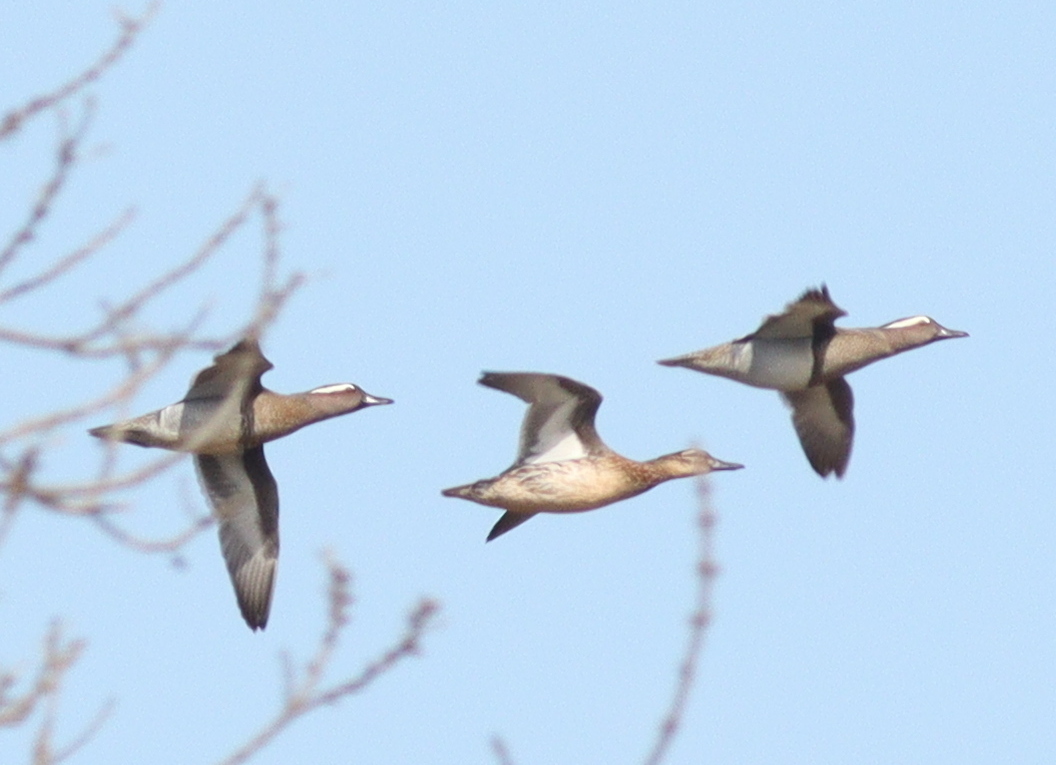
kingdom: Animalia
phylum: Chordata
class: Aves
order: Anseriformes
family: Anatidae
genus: Spatula
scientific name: Spatula querquedula
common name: Garganey
